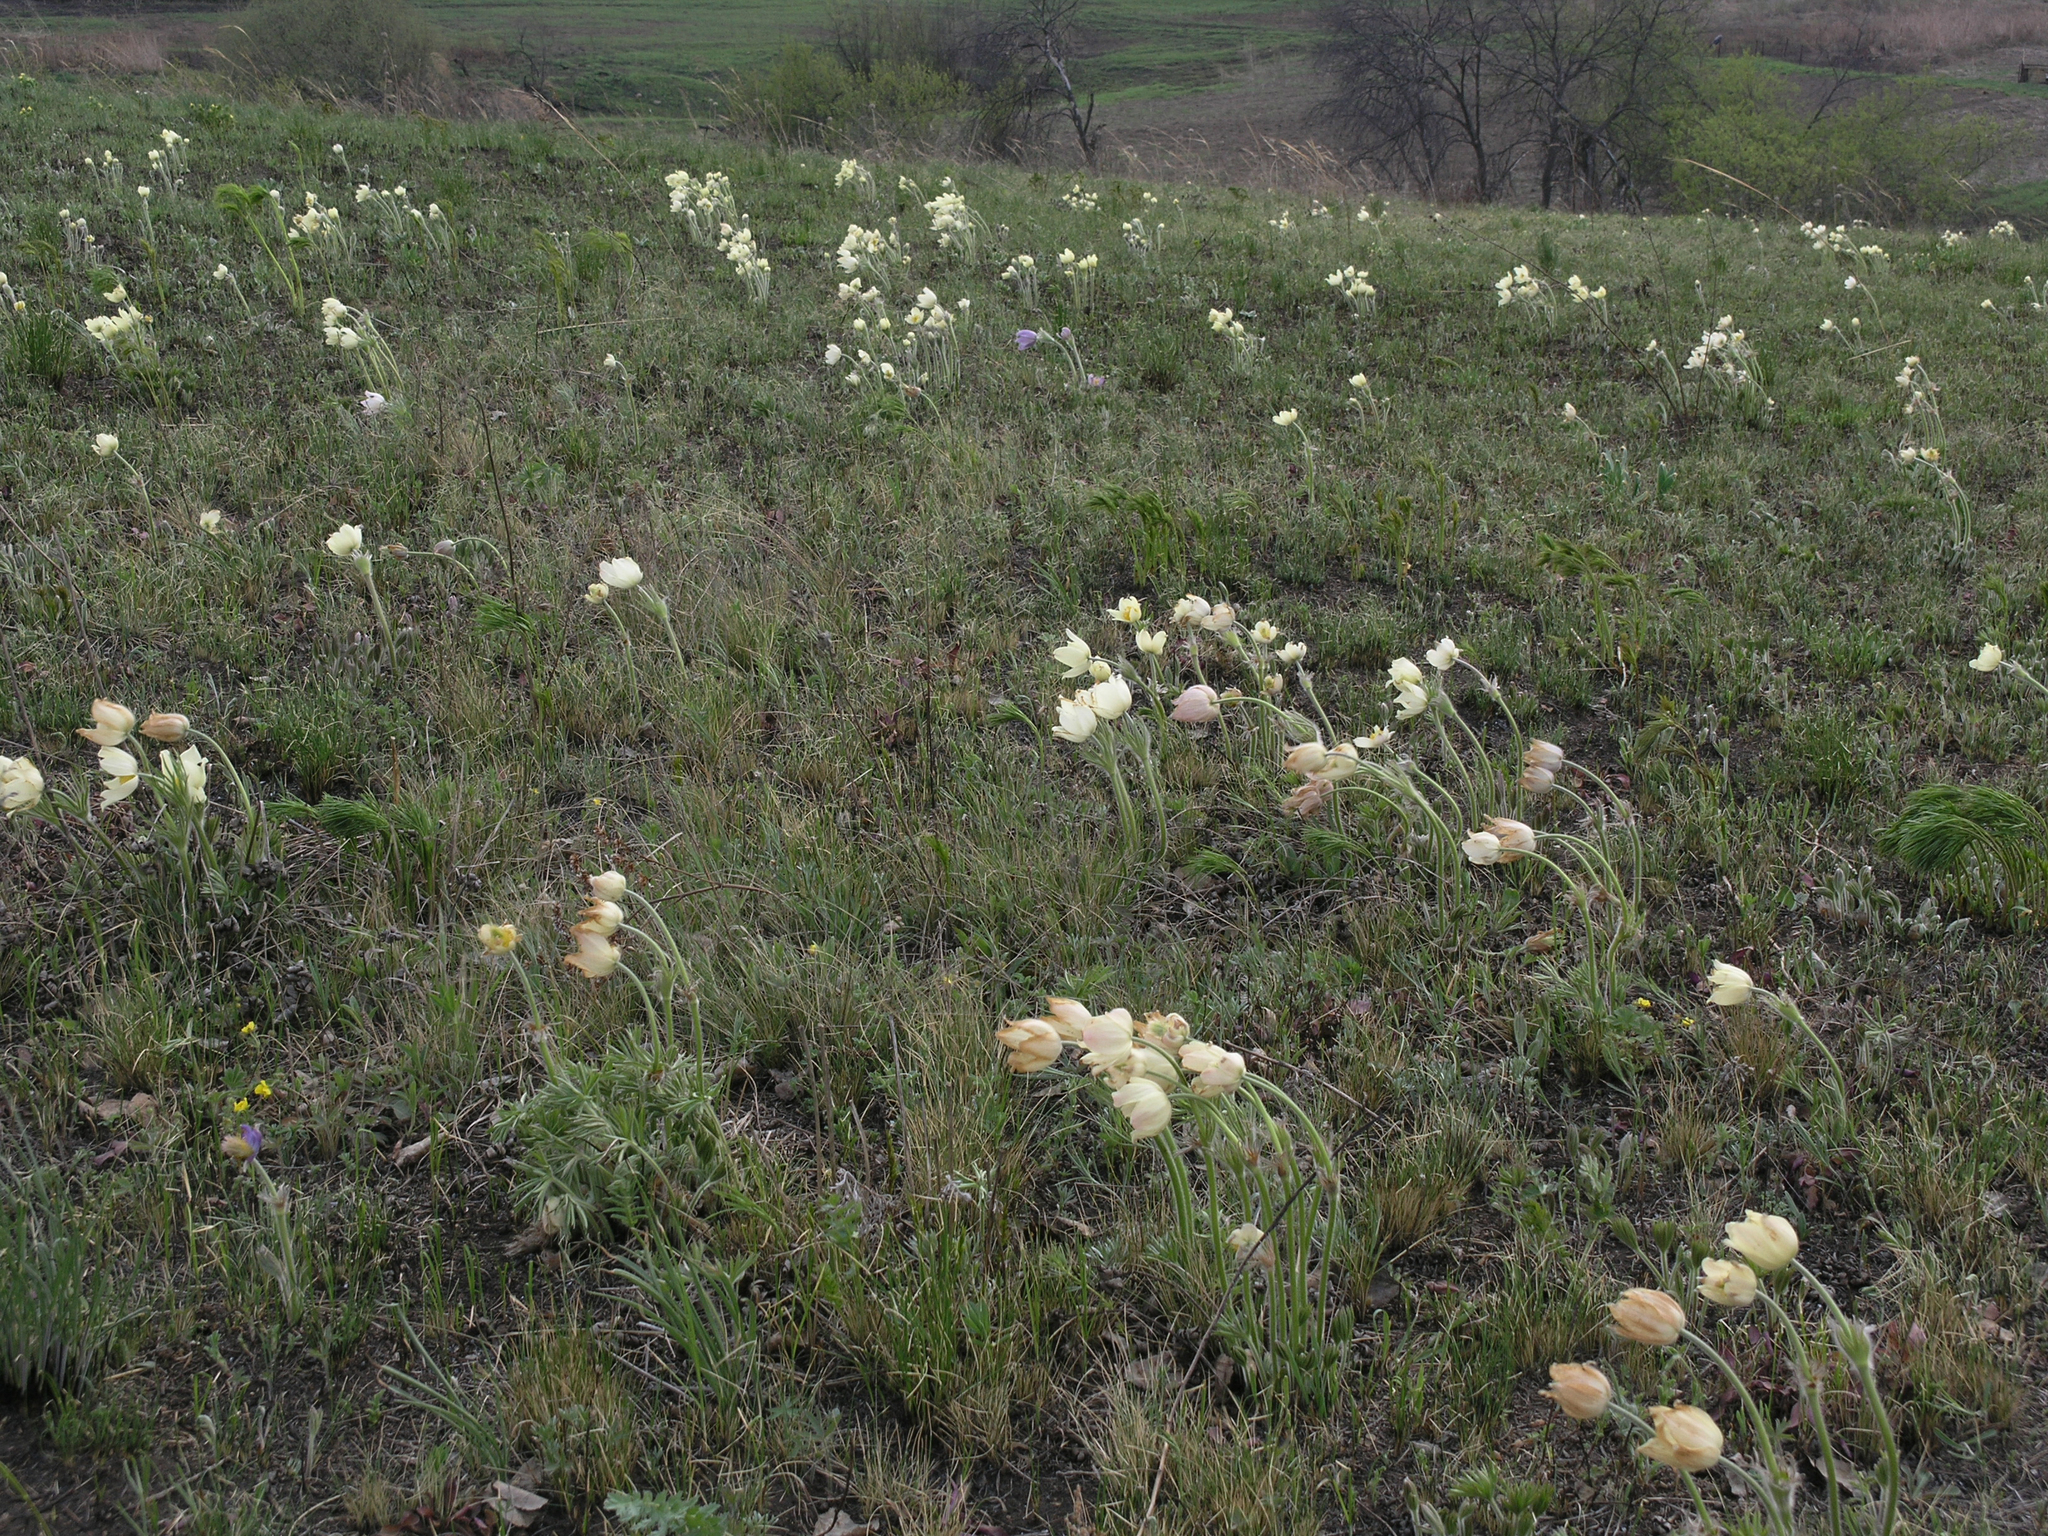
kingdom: Plantae
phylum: Tracheophyta
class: Magnoliopsida
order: Ranunculales
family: Ranunculaceae
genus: Pulsatilla
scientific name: Pulsatilla patens
